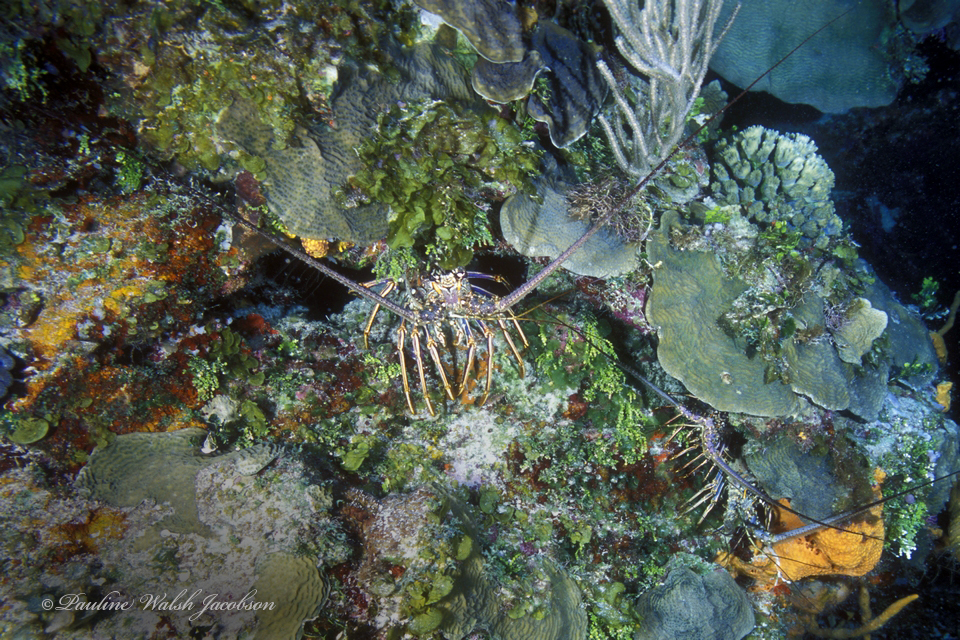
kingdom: Animalia
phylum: Arthropoda
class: Malacostraca
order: Decapoda
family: Palinuridae
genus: Panulirus
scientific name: Panulirus argus
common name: Caribbean spiny lobster
